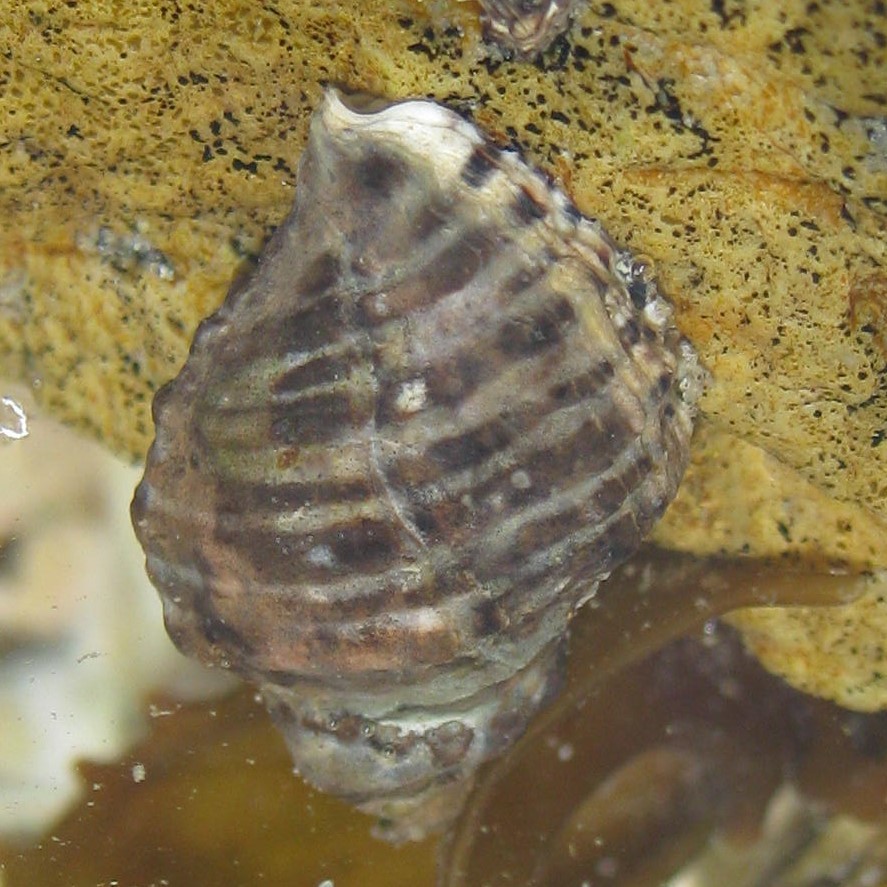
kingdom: Animalia
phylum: Mollusca
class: Gastropoda
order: Neogastropoda
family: Muricidae
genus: Haustrum
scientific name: Haustrum scobina
